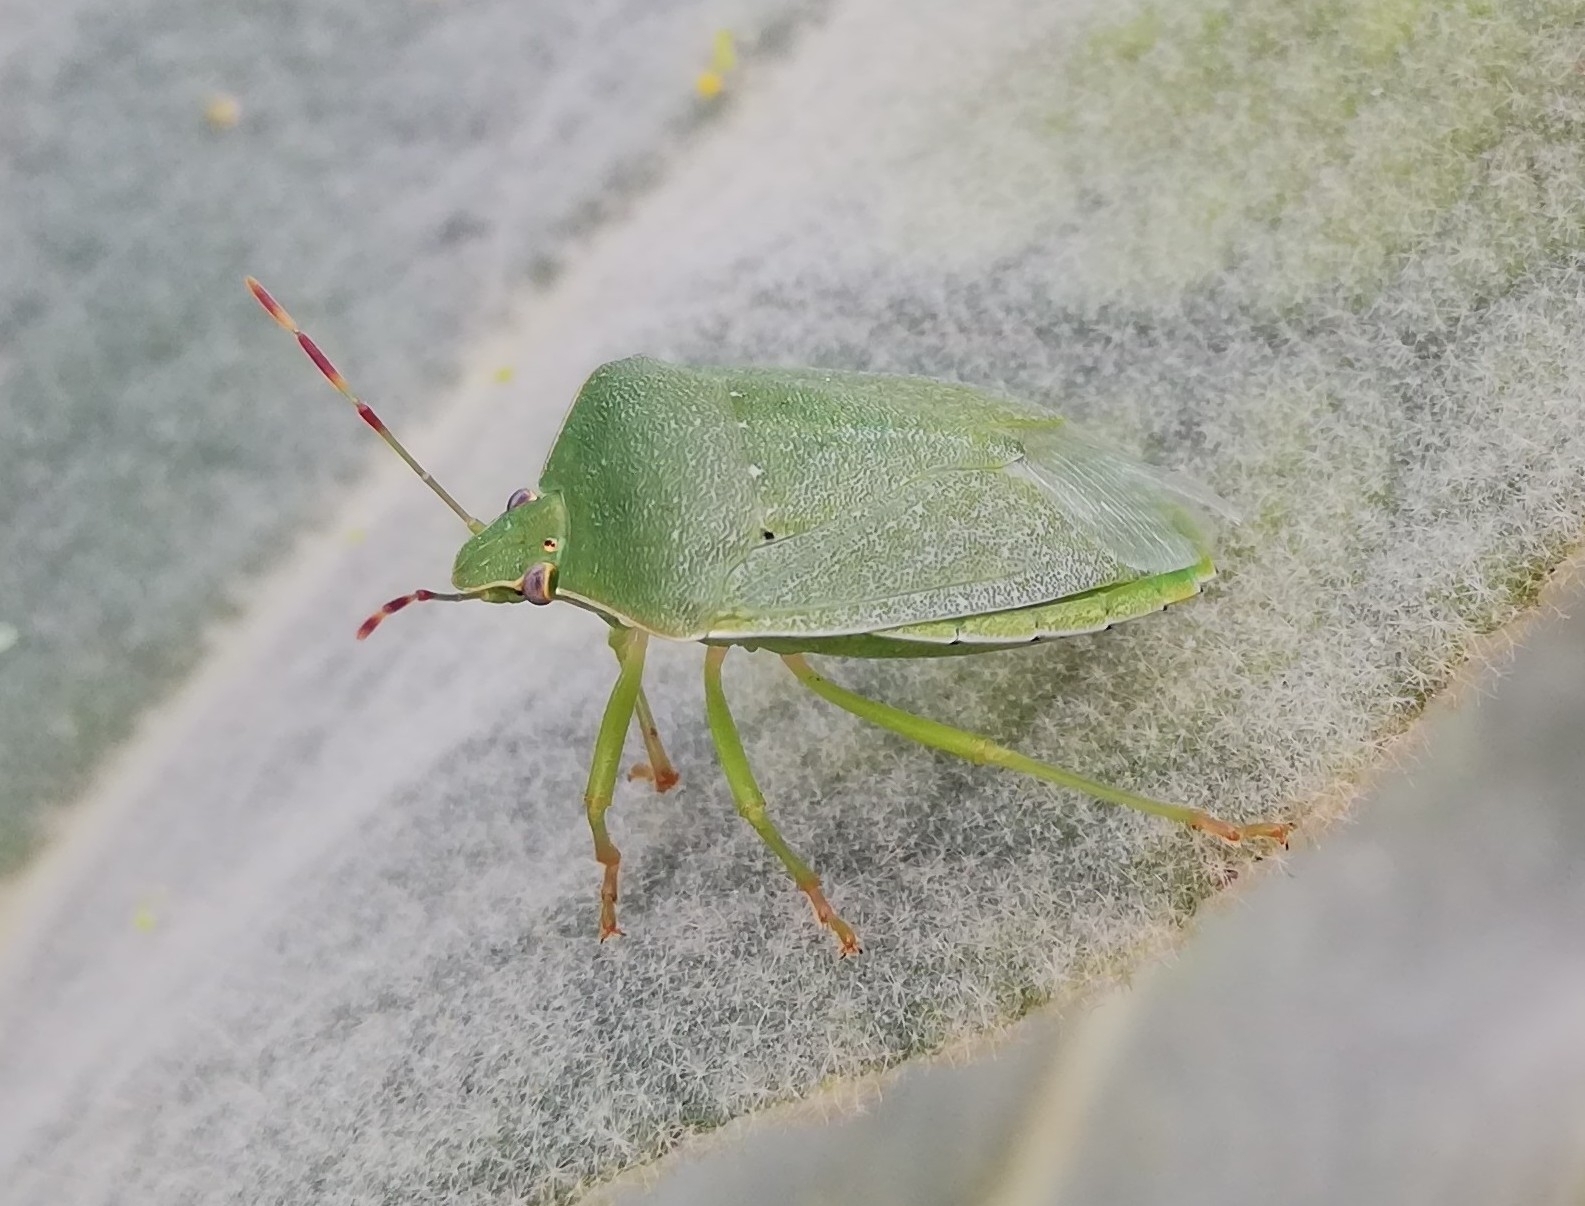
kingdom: Animalia
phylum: Arthropoda
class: Insecta
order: Hemiptera
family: Pentatomidae
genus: Nezara
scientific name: Nezara viridula
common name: Southern green stink bug
